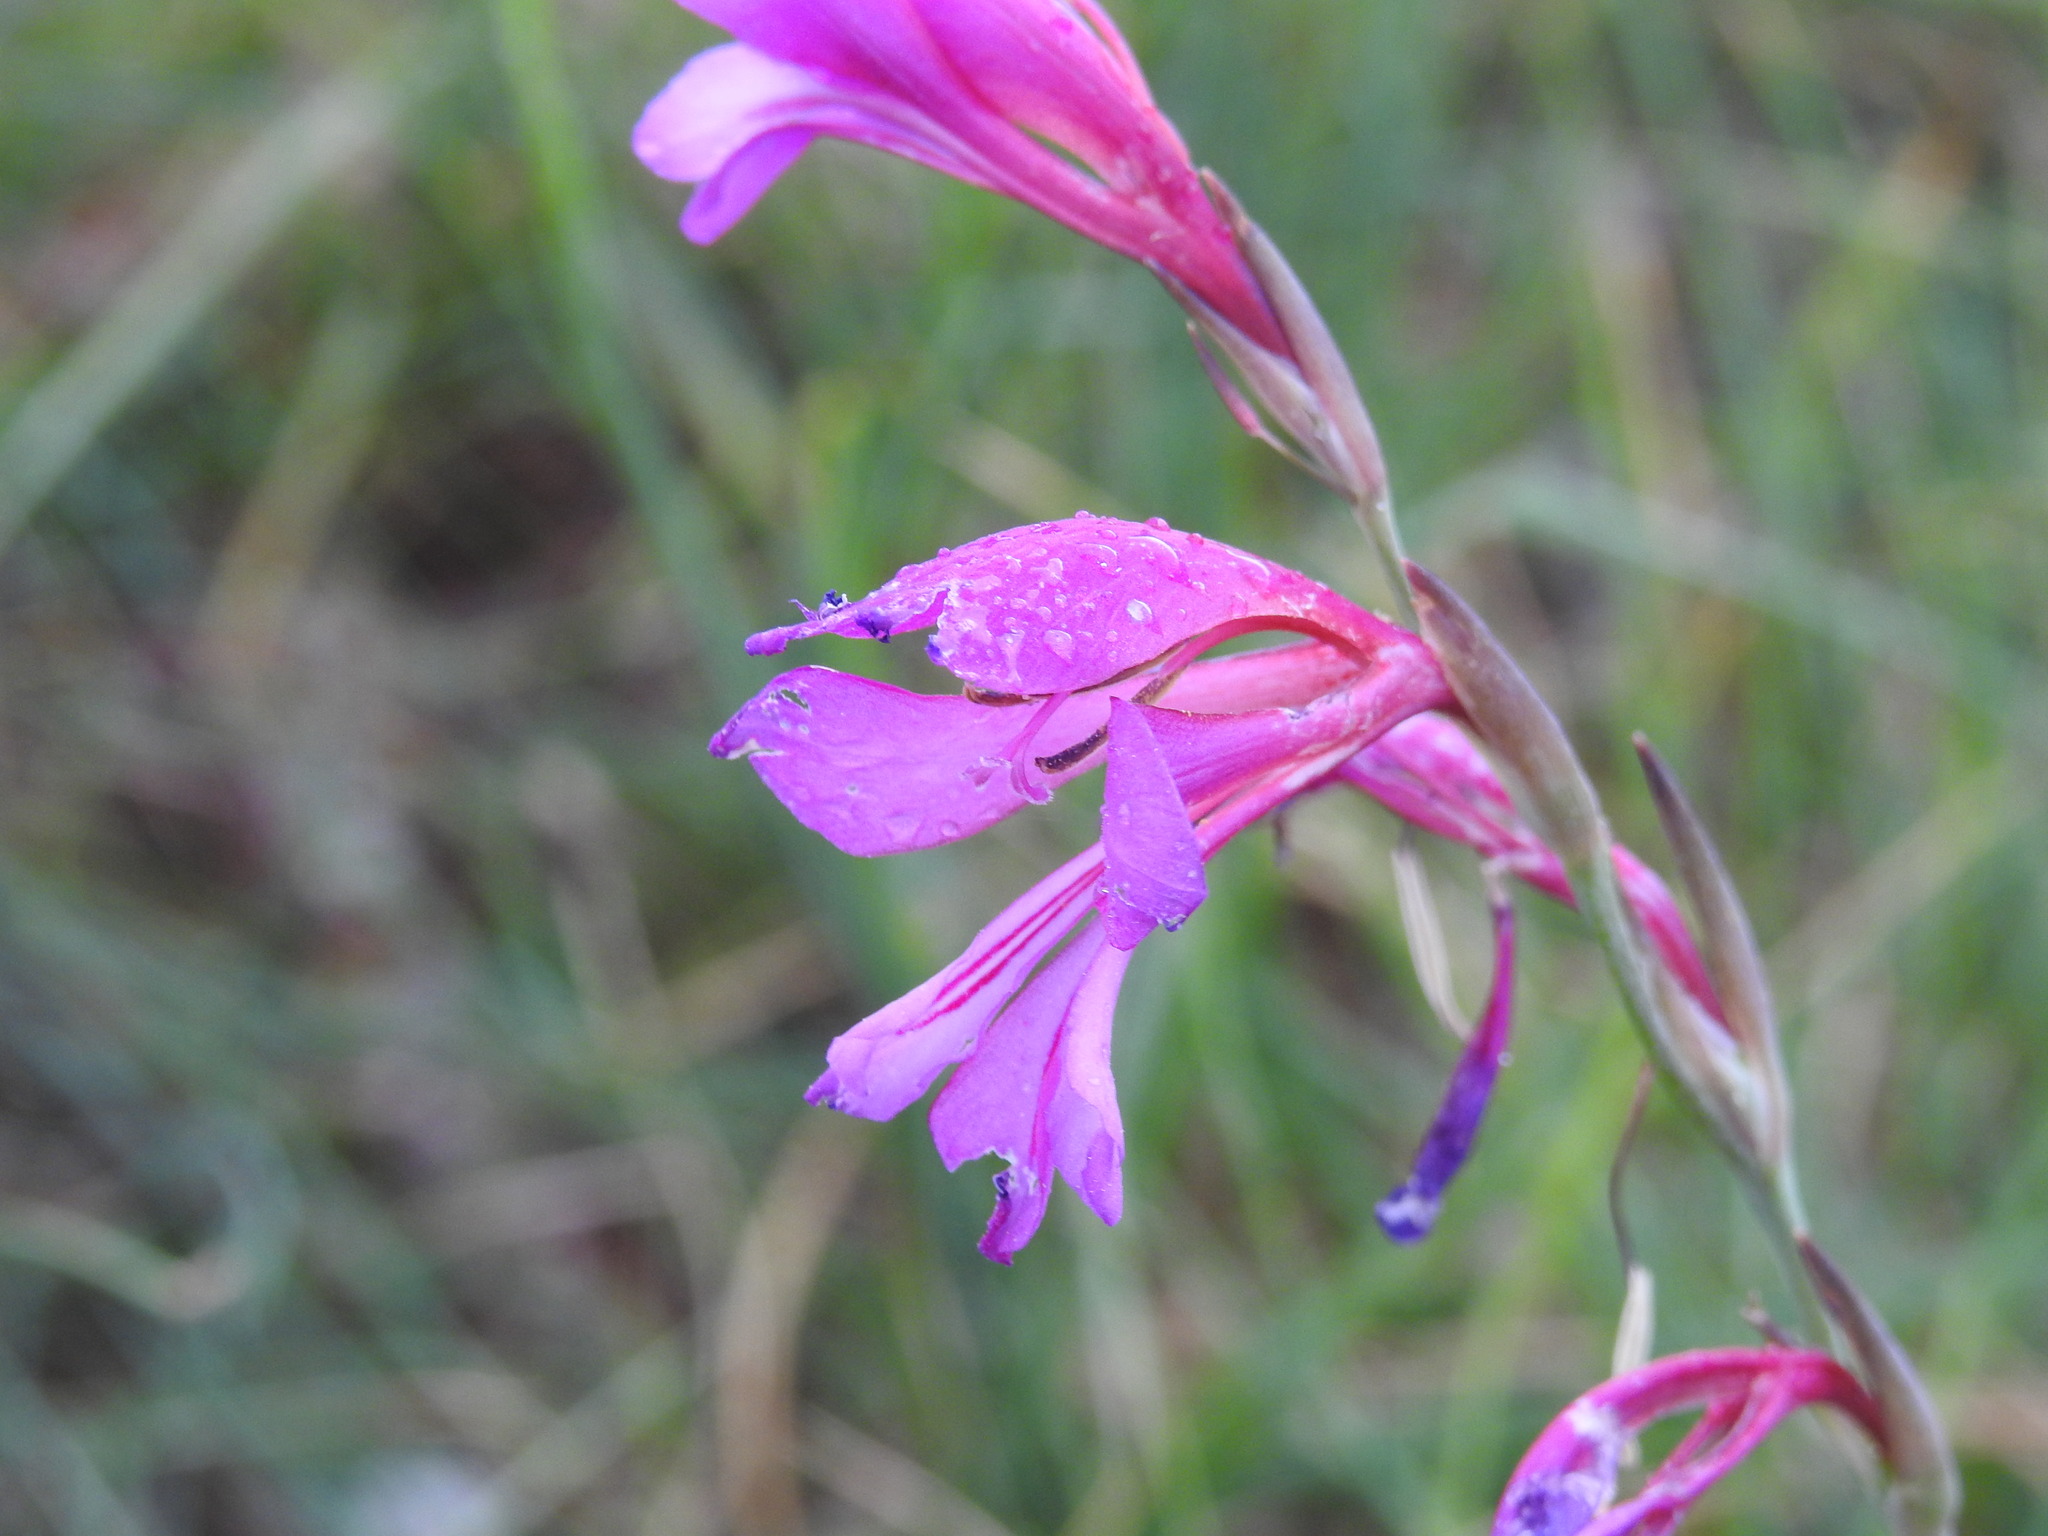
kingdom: Plantae
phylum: Tracheophyta
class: Liliopsida
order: Asparagales
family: Iridaceae
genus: Gladiolus
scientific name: Gladiolus dubius
